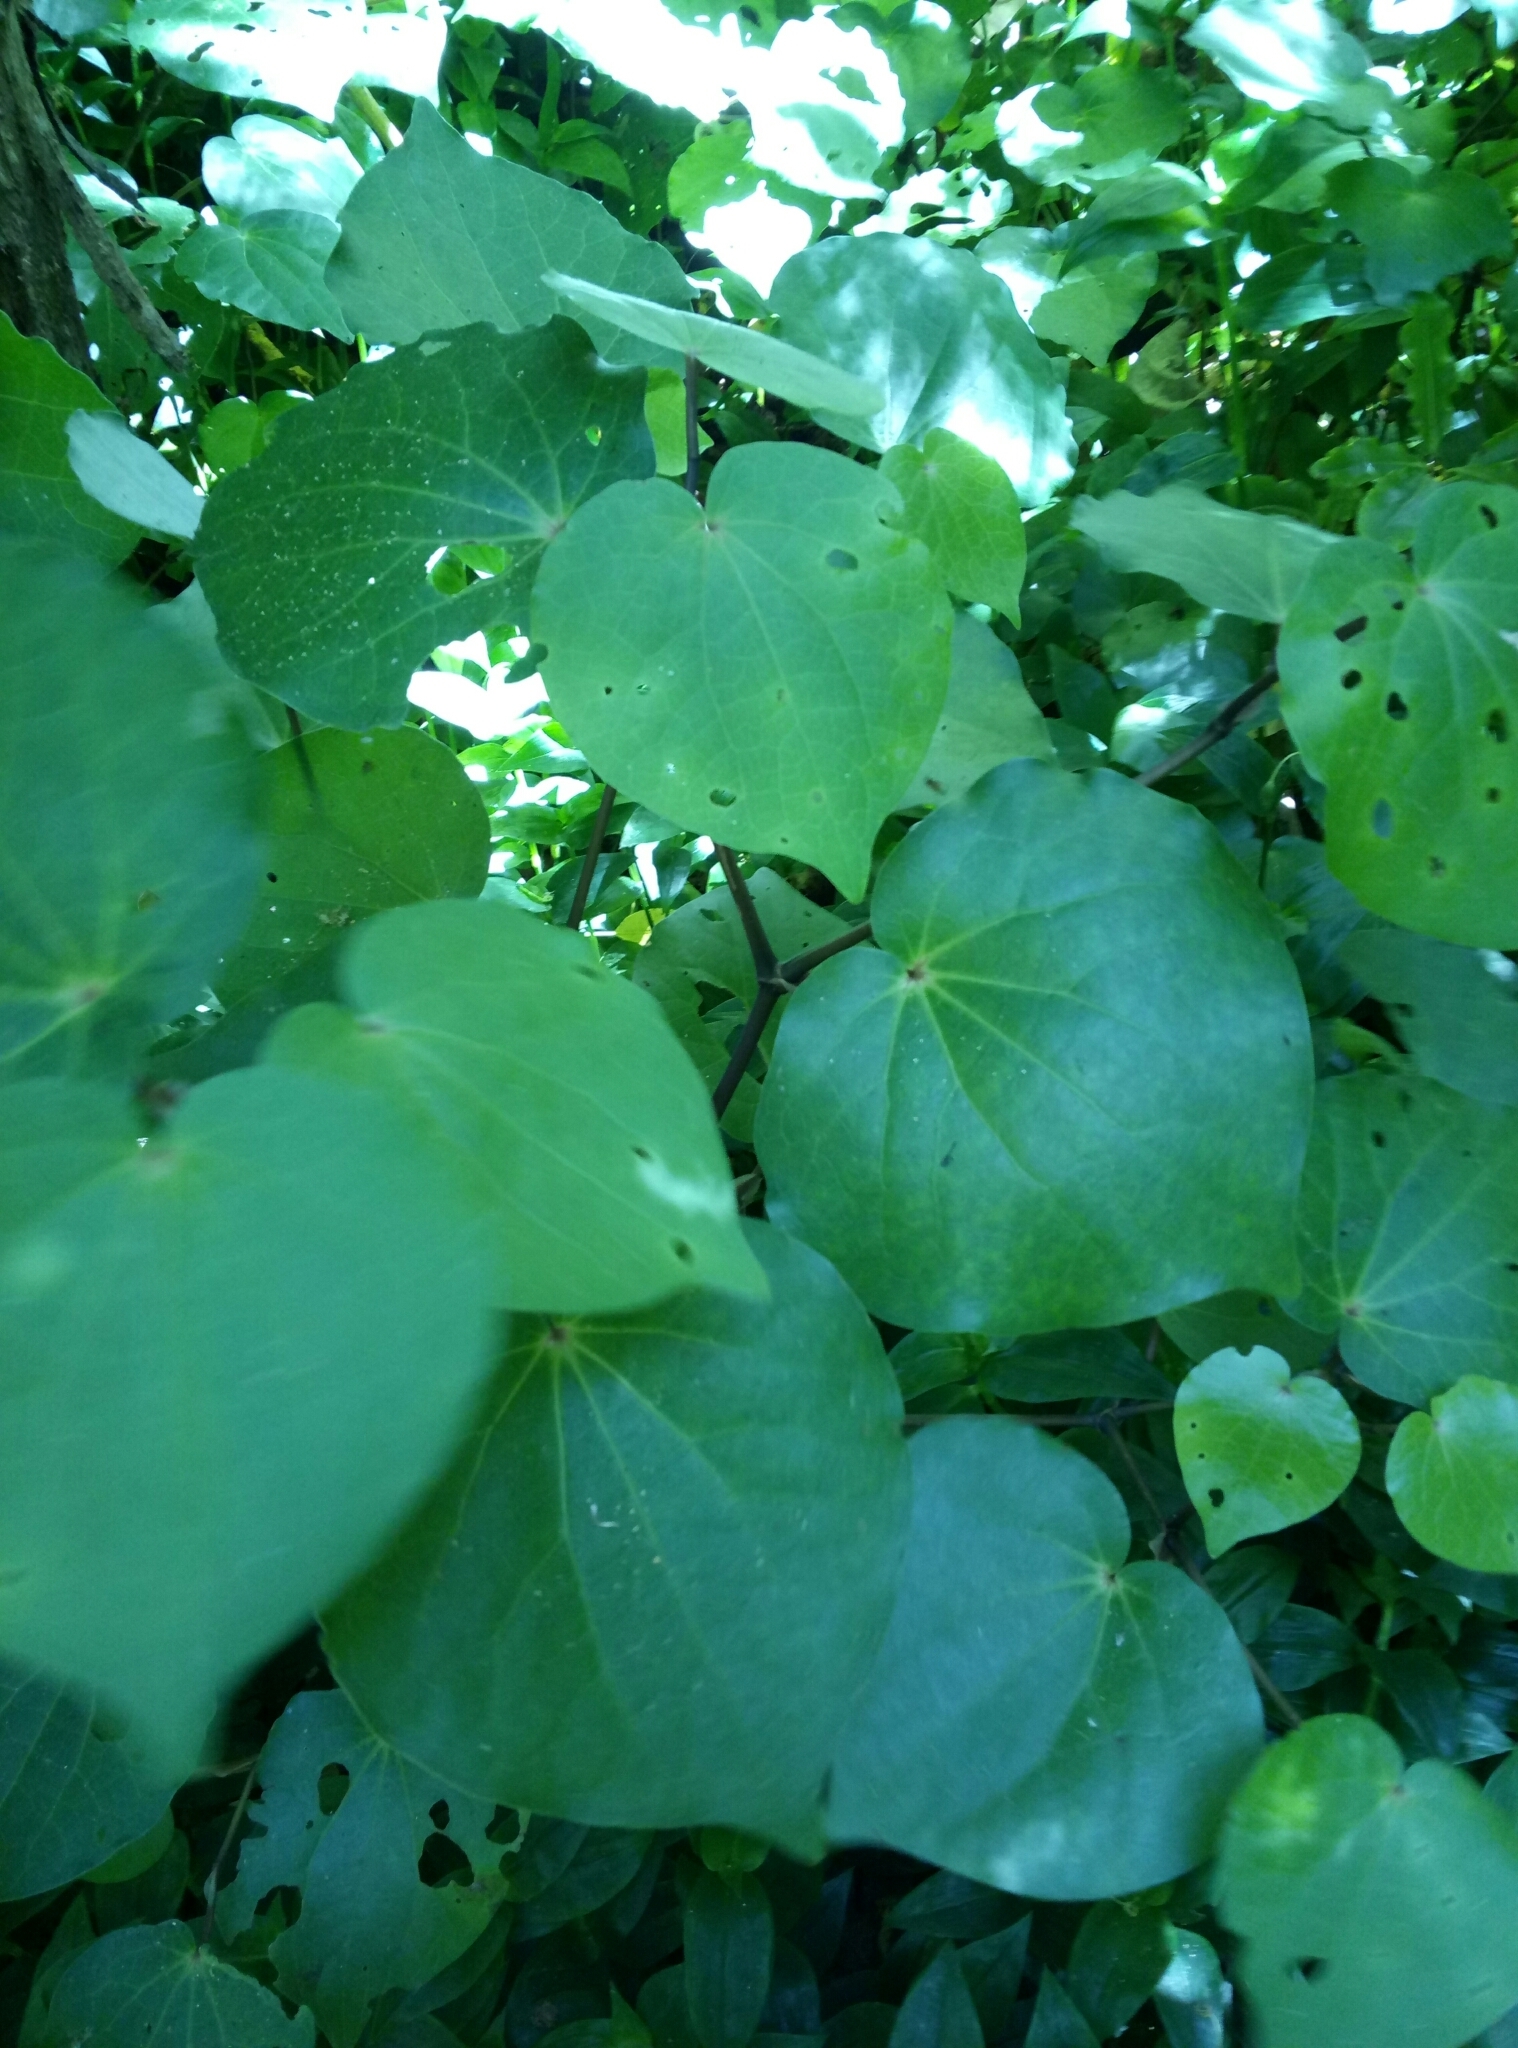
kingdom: Plantae
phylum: Tracheophyta
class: Magnoliopsida
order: Piperales
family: Piperaceae
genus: Macropiper
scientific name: Macropiper excelsum
